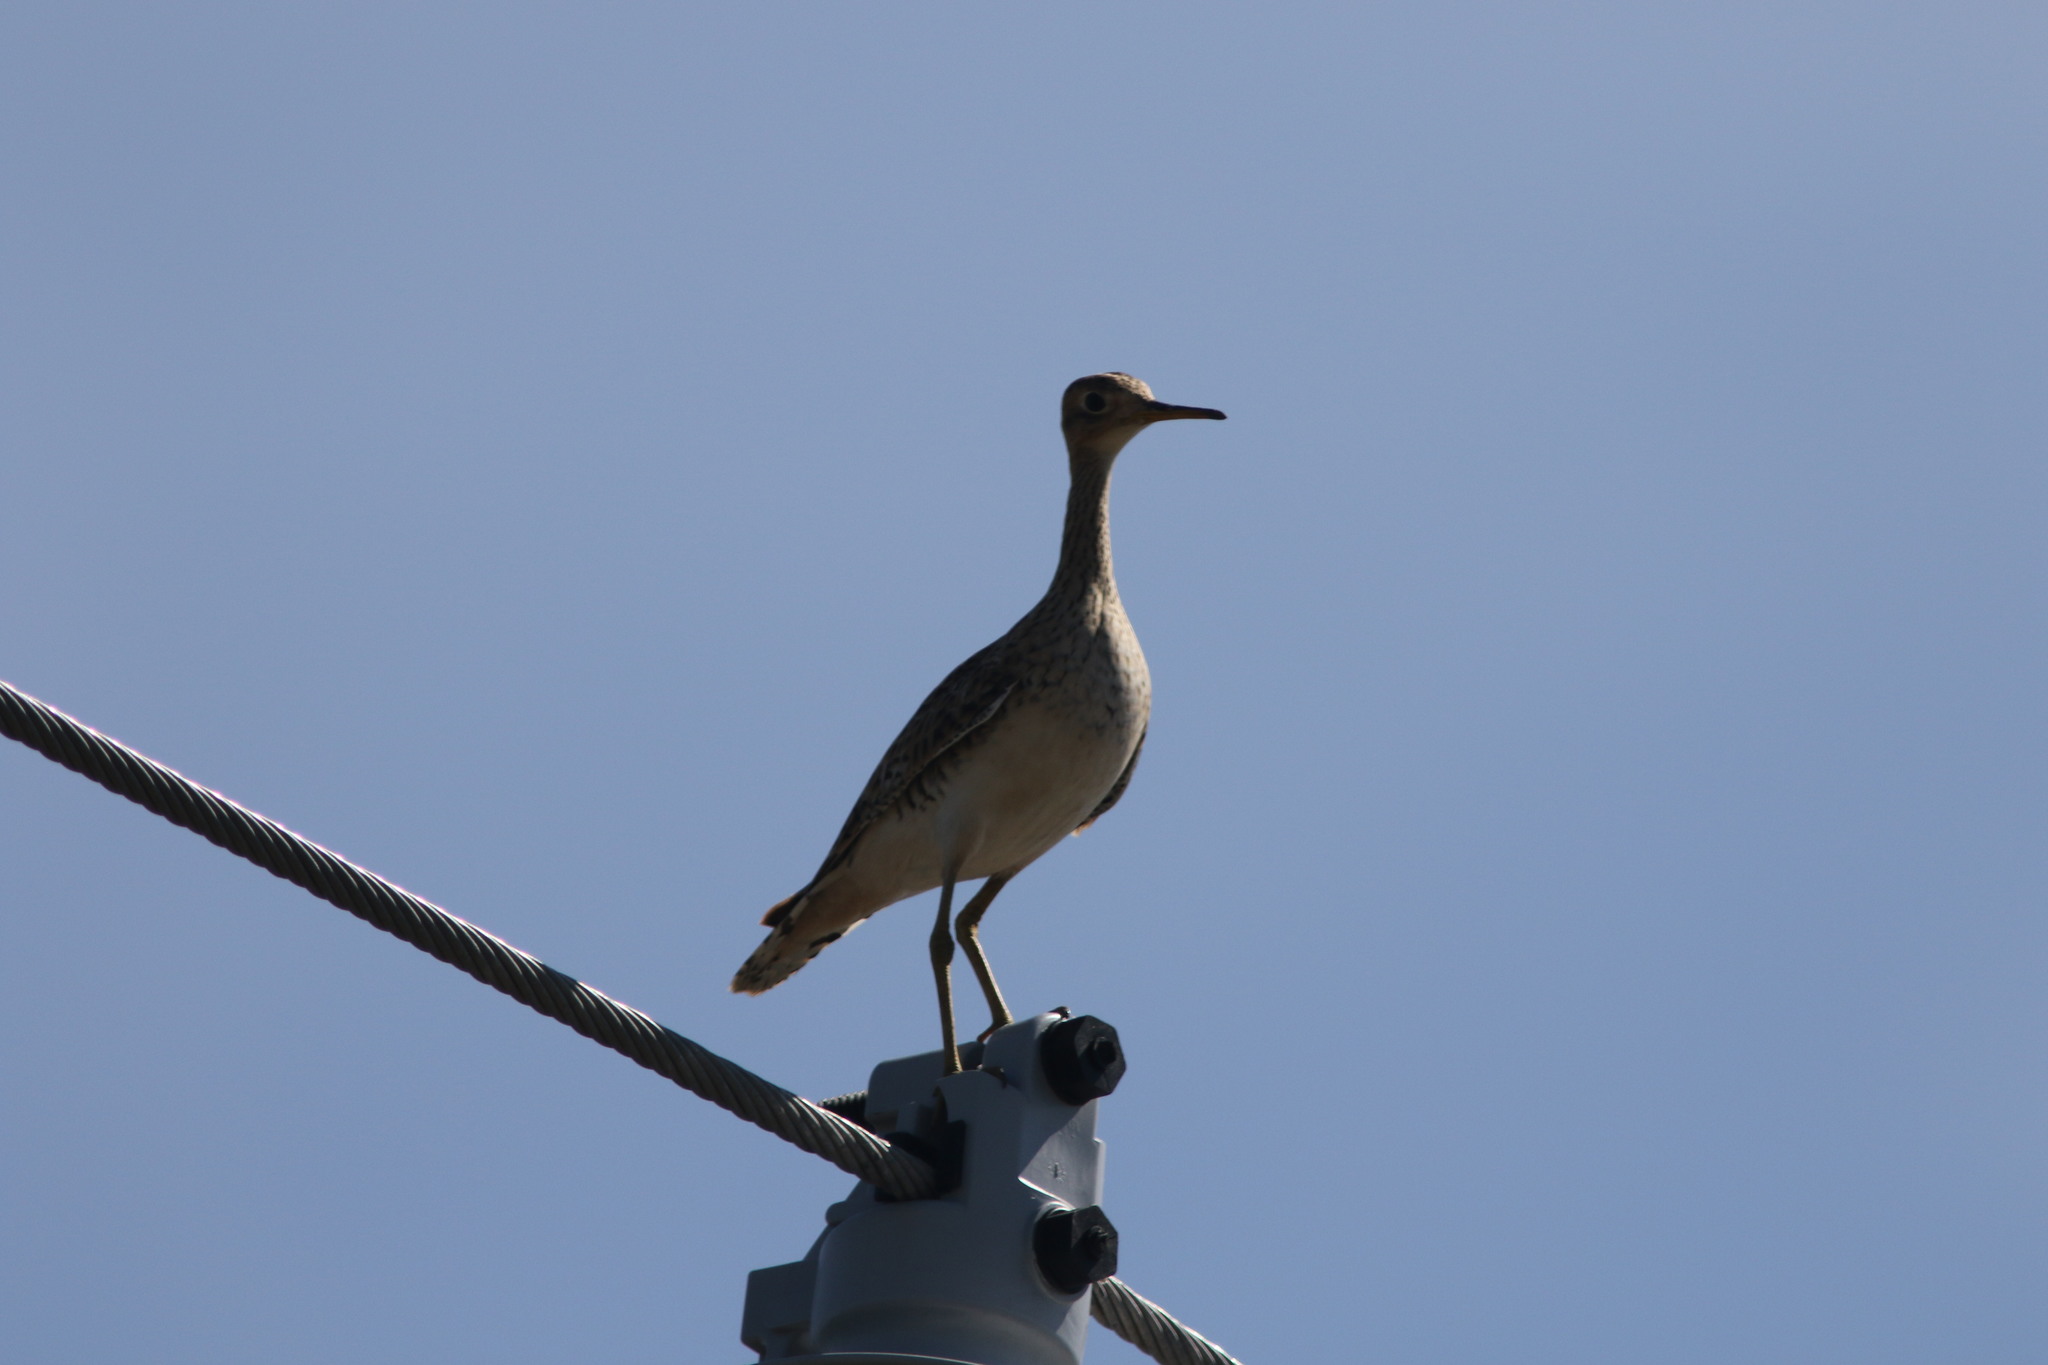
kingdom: Animalia
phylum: Chordata
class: Aves
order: Charadriiformes
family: Scolopacidae
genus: Bartramia
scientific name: Bartramia longicauda
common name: Upland sandpiper
